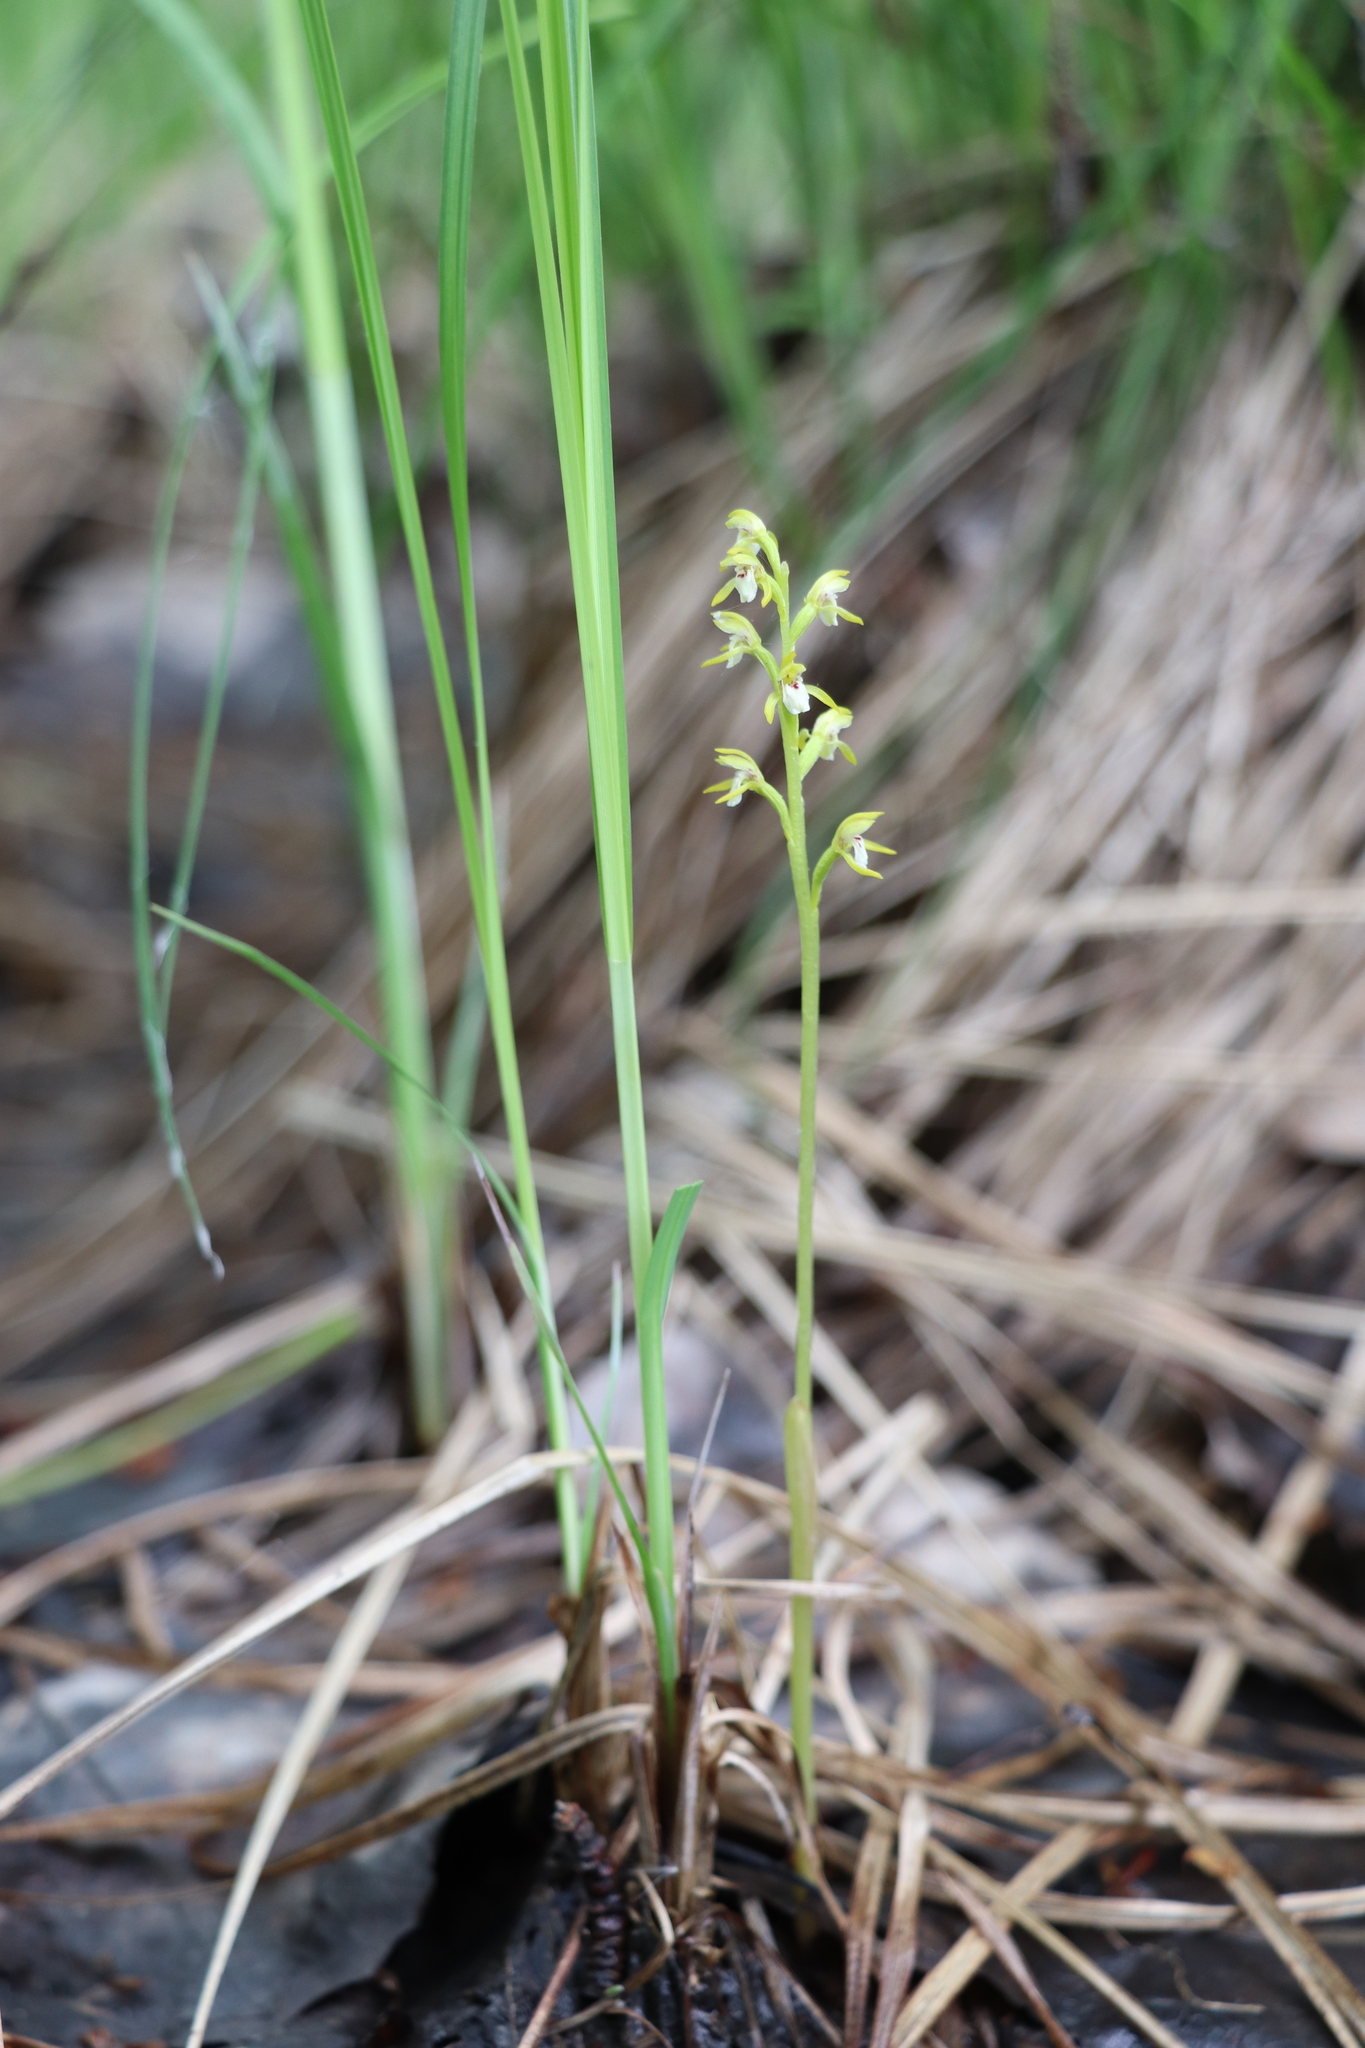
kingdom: Plantae
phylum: Tracheophyta
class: Liliopsida
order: Asparagales
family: Orchidaceae
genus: Corallorhiza
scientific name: Corallorhiza trifida
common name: Yellow coralroot
